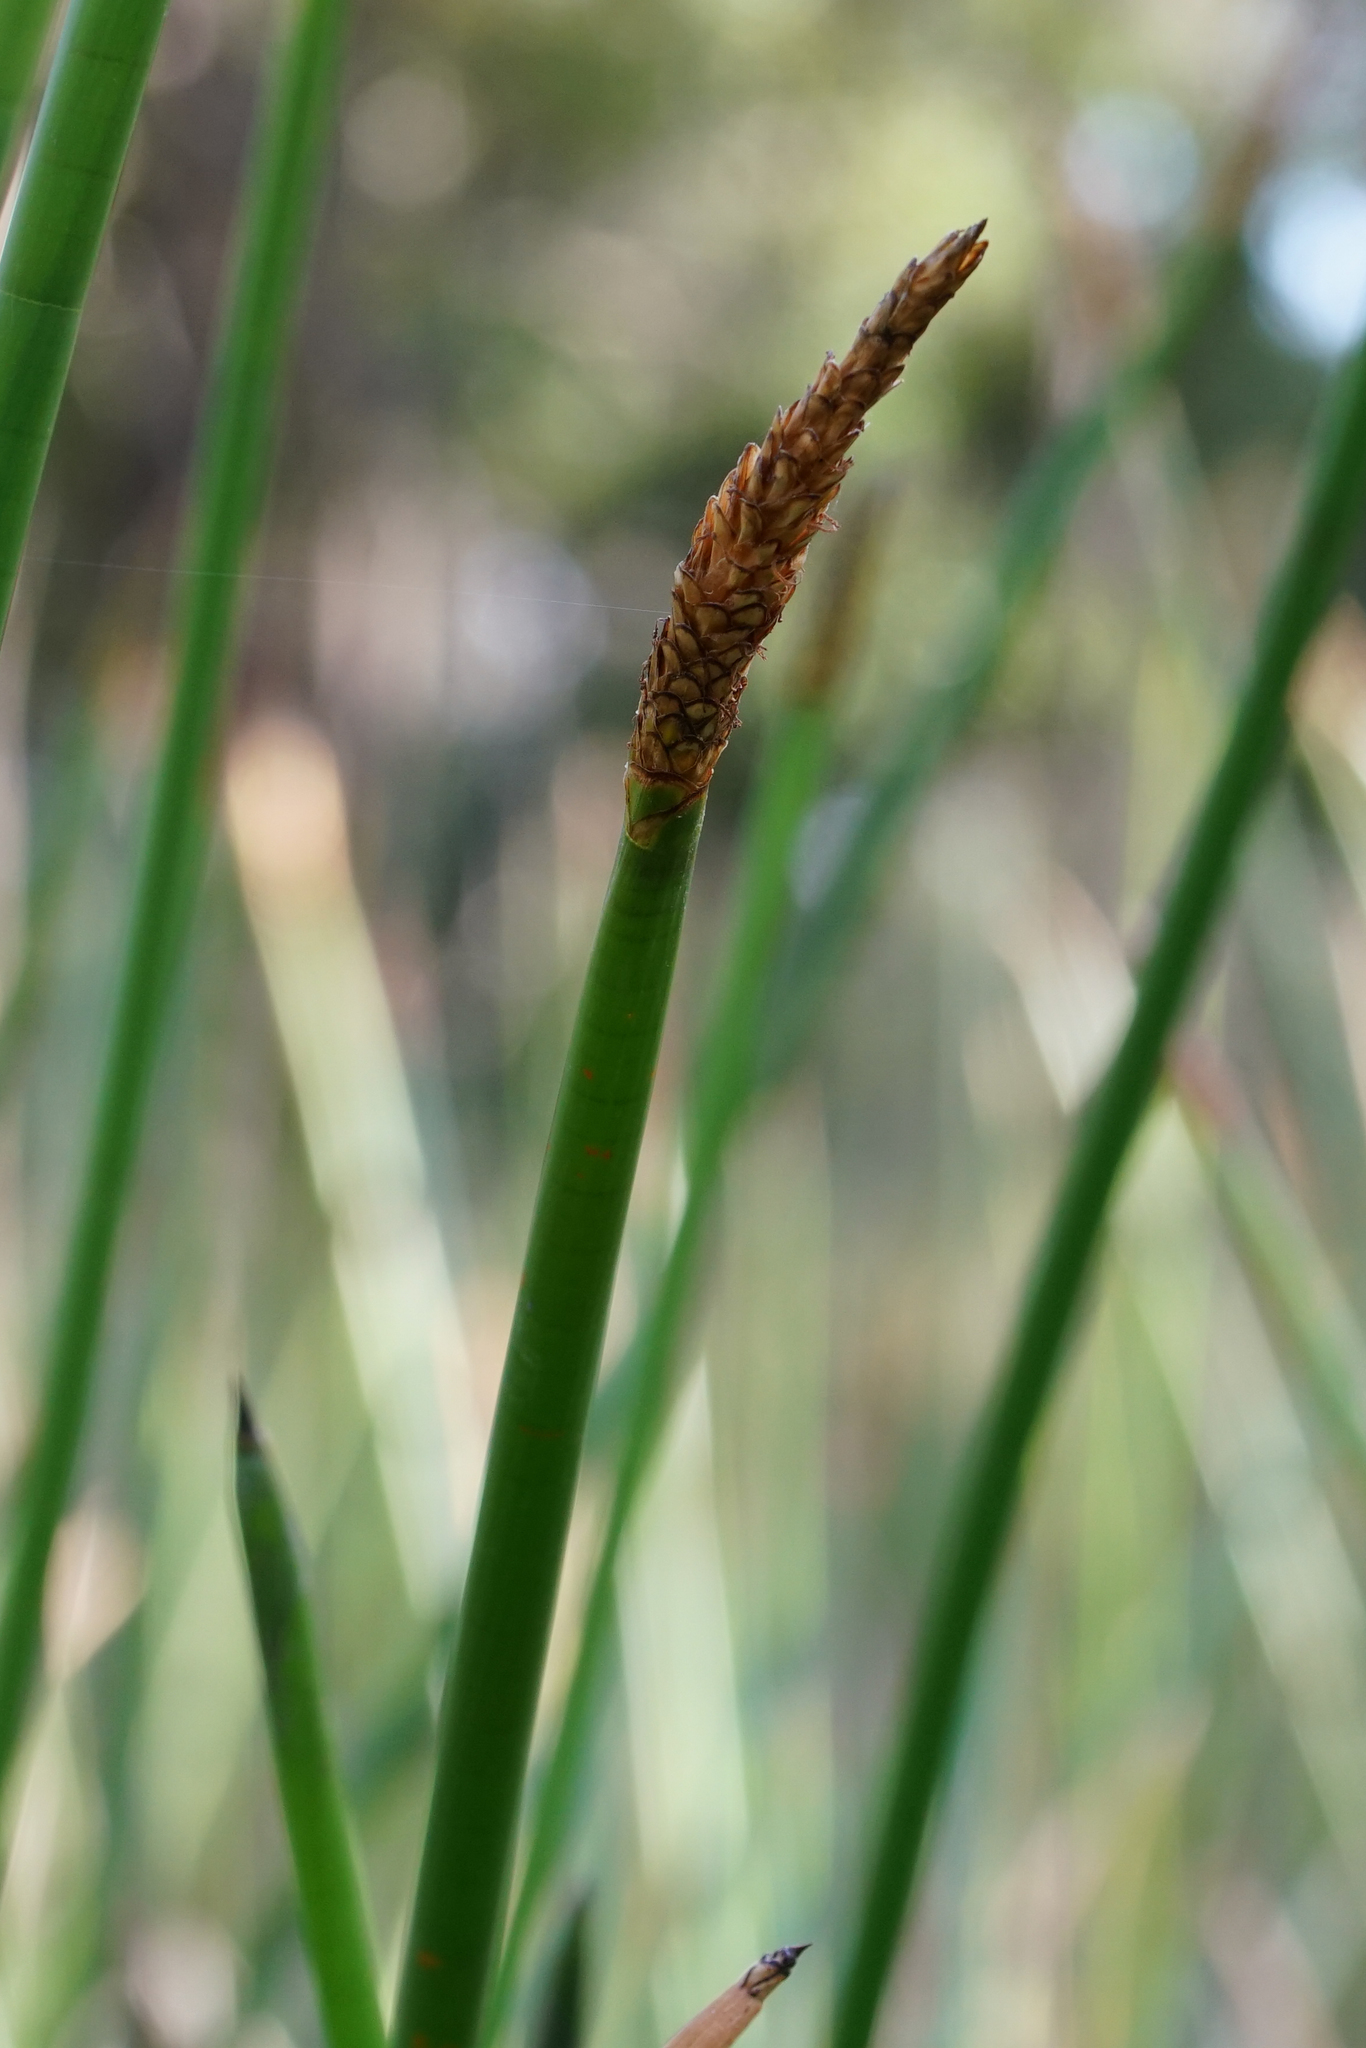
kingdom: Plantae
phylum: Tracheophyta
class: Liliopsida
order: Poales
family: Cyperaceae
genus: Eleocharis
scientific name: Eleocharis sphacelata
